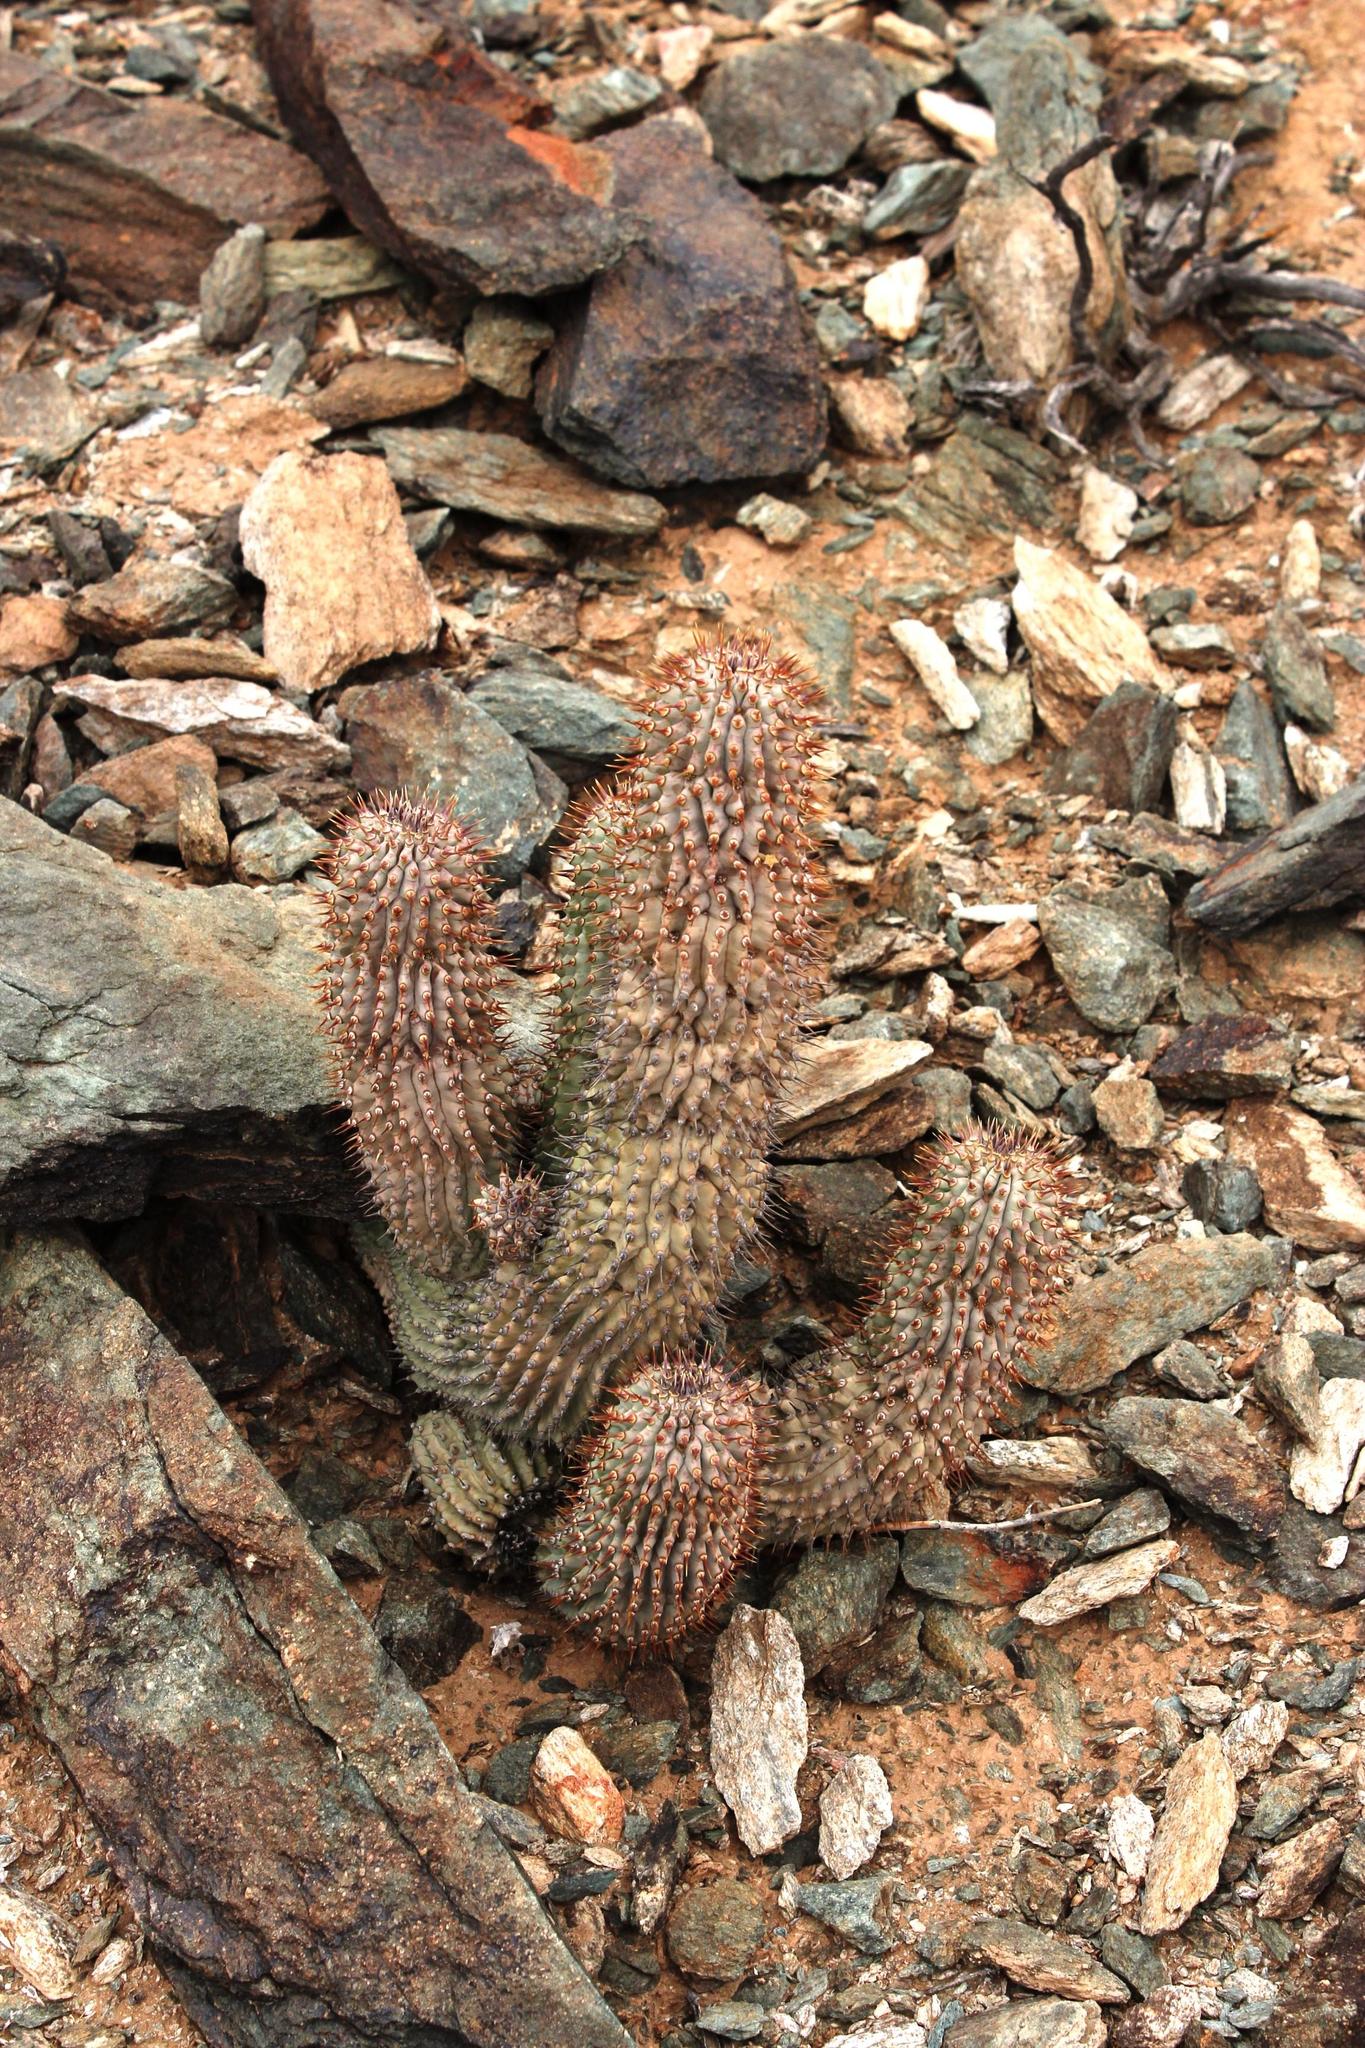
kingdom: Plantae
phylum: Tracheophyta
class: Magnoliopsida
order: Gentianales
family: Apocynaceae
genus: Ceropegia
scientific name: Ceropegia alstonii
